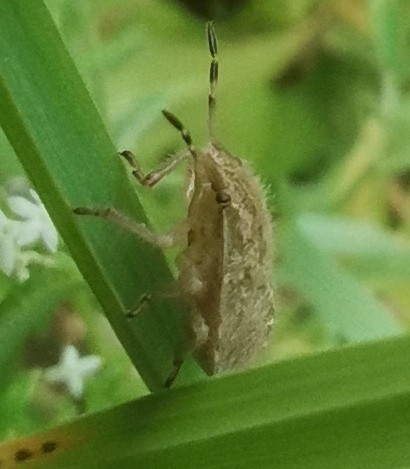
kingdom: Animalia
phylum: Arthropoda
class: Insecta
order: Hemiptera
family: Pentatomidae
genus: Dolycoris
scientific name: Dolycoris baccarum
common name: Sloe bug
